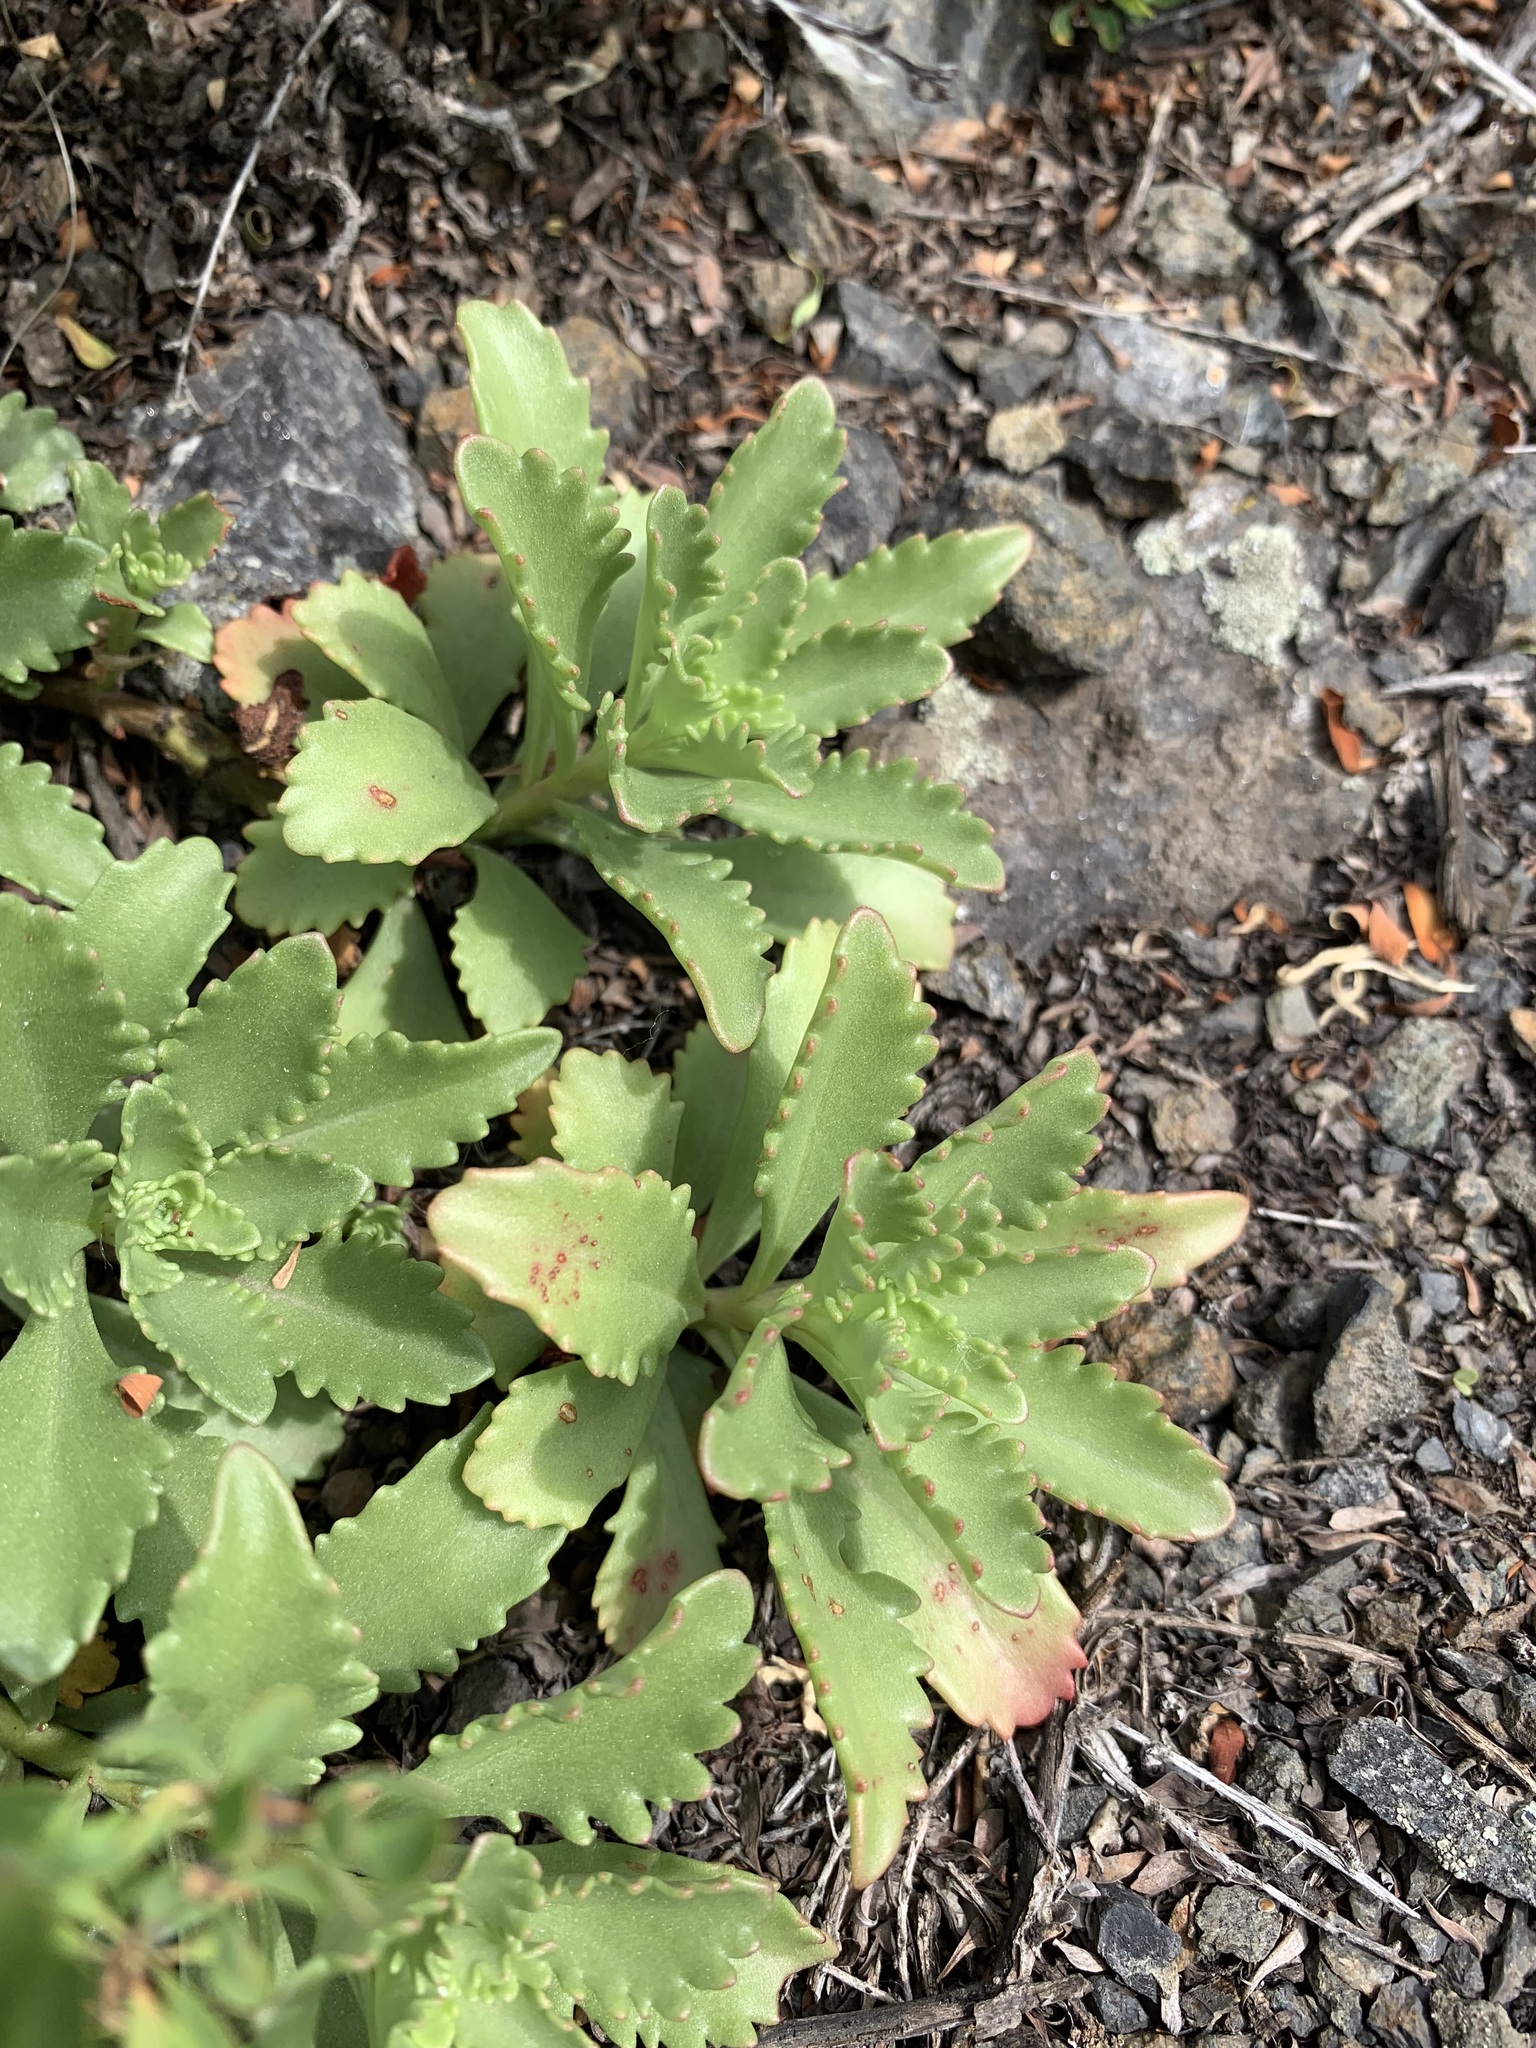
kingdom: Plantae
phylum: Tracheophyta
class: Magnoliopsida
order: Saxifragales
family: Crassulaceae
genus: Phedimus
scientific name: Phedimus hybridus
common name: Hybrid stonecrop
